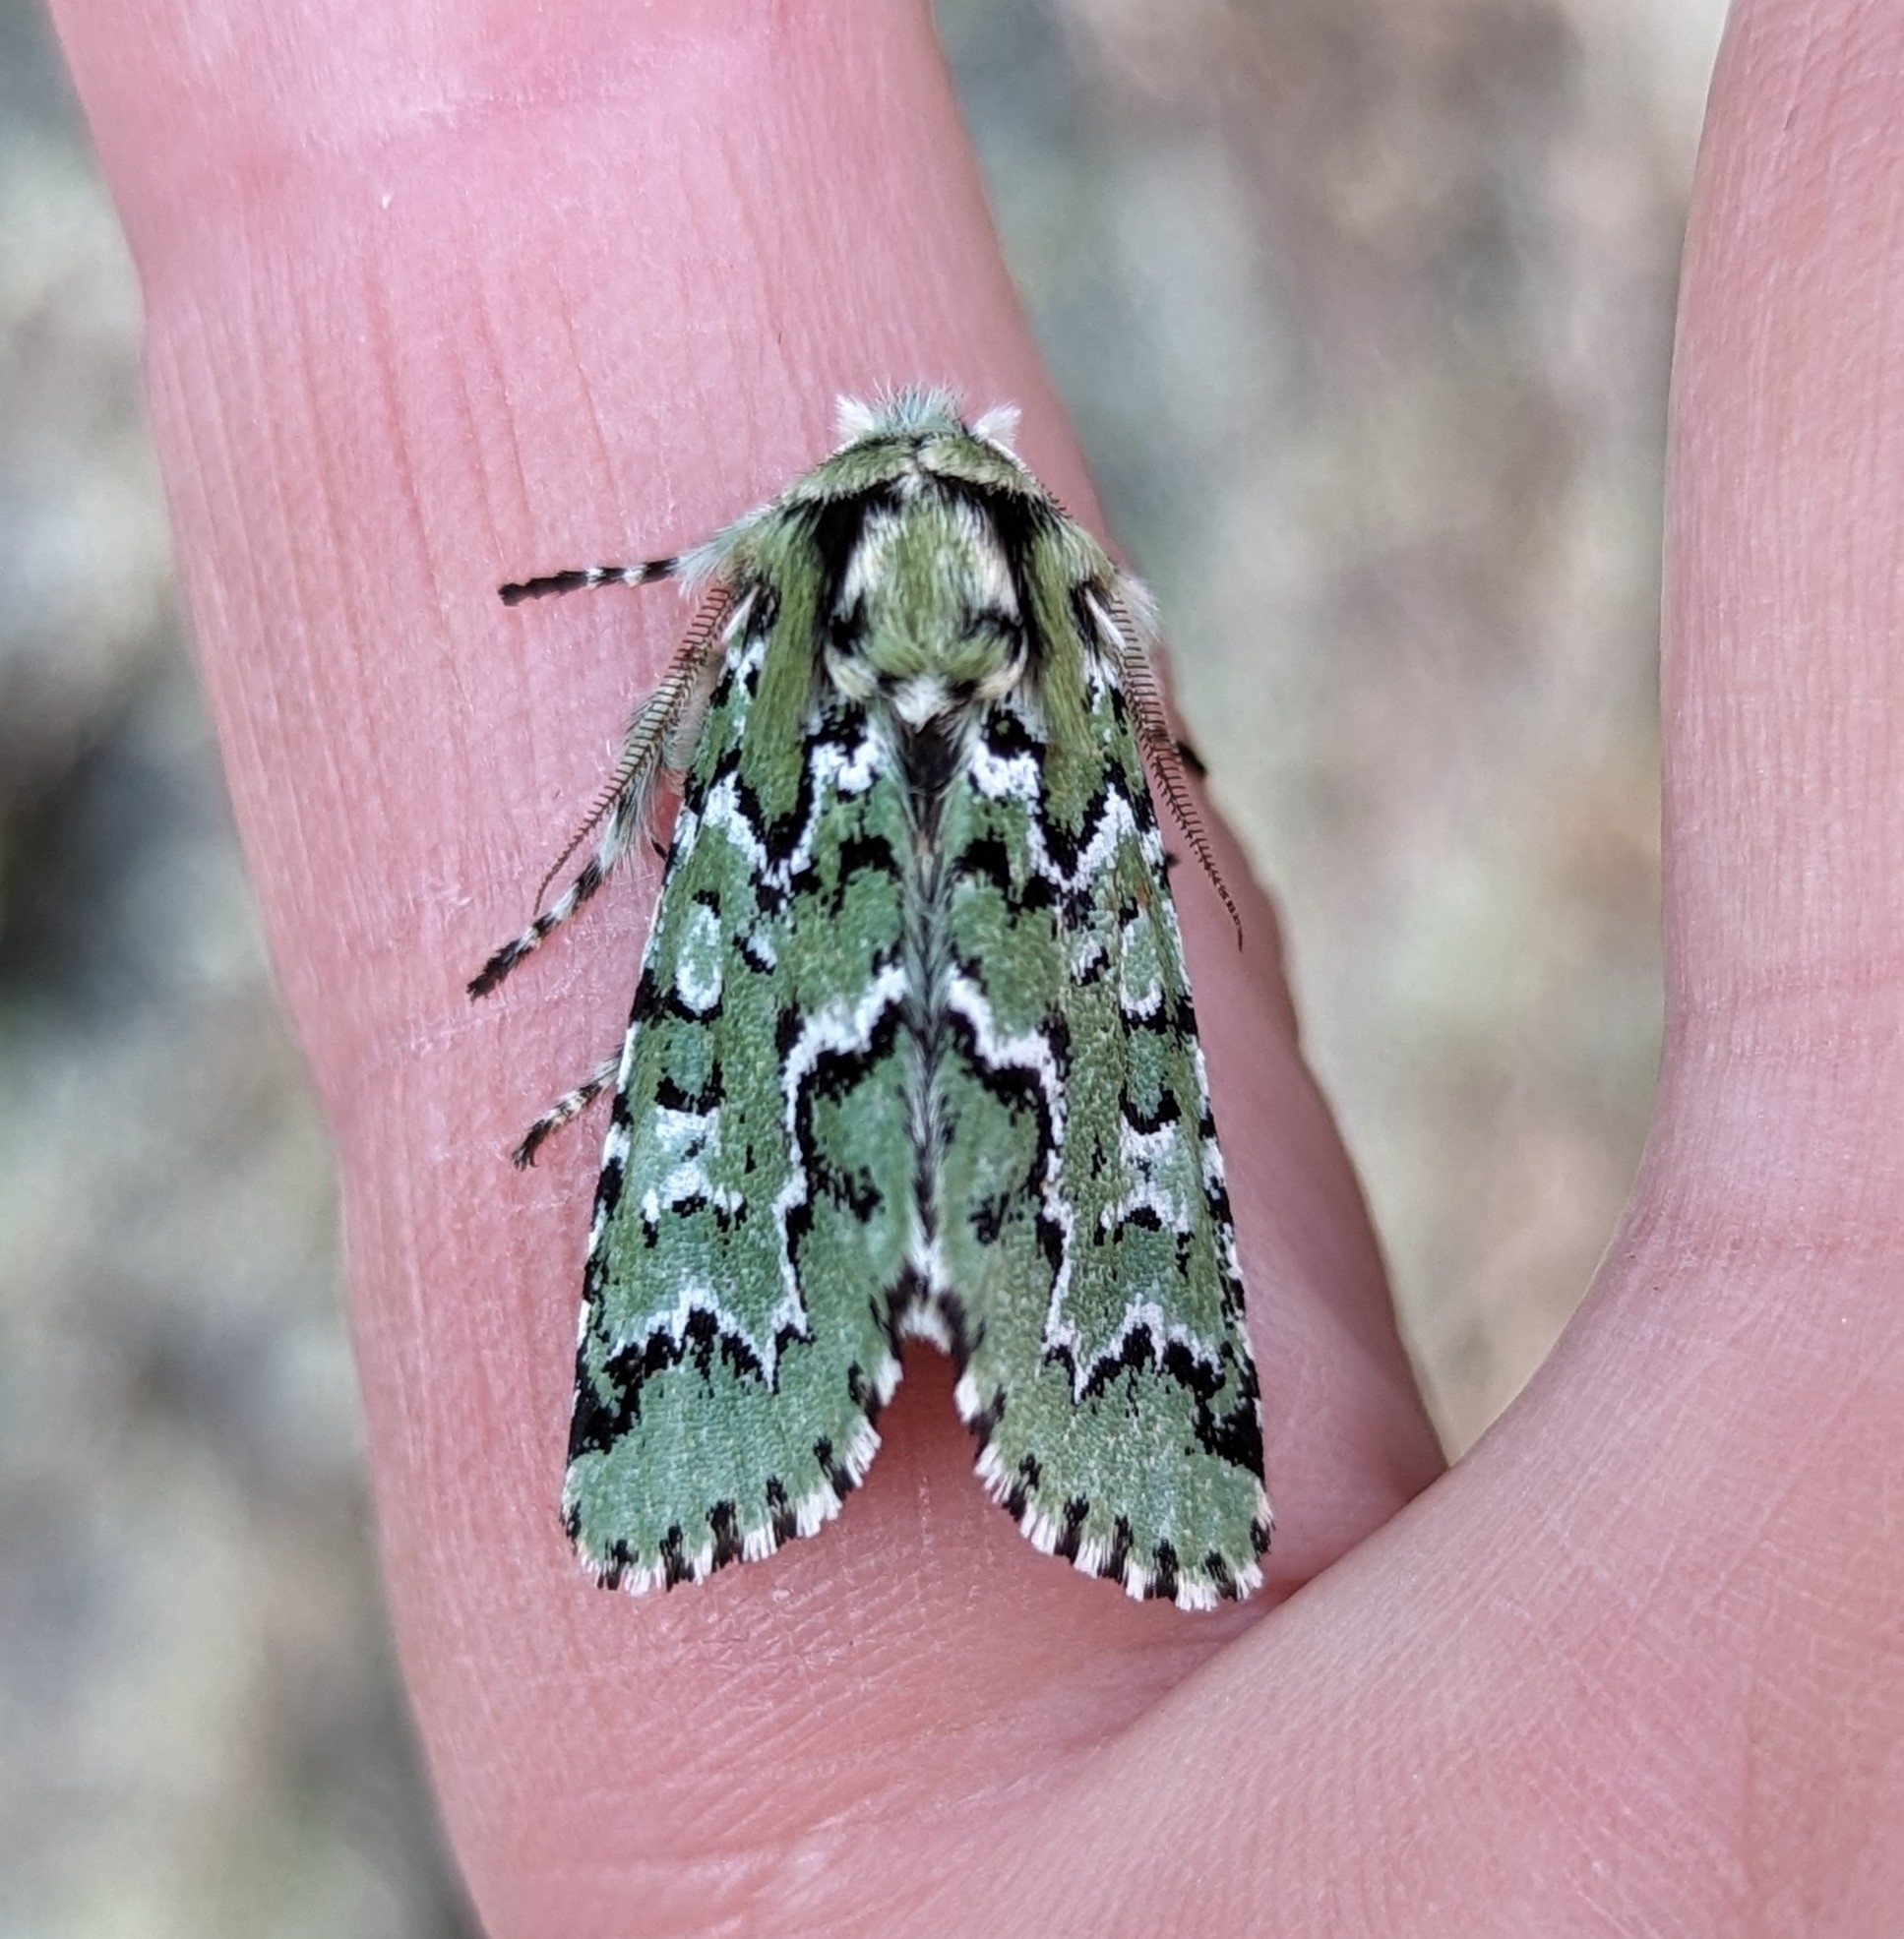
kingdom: Animalia
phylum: Arthropoda
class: Insecta
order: Lepidoptera
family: Noctuidae
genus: Feralia
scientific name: Feralia deceptiva
